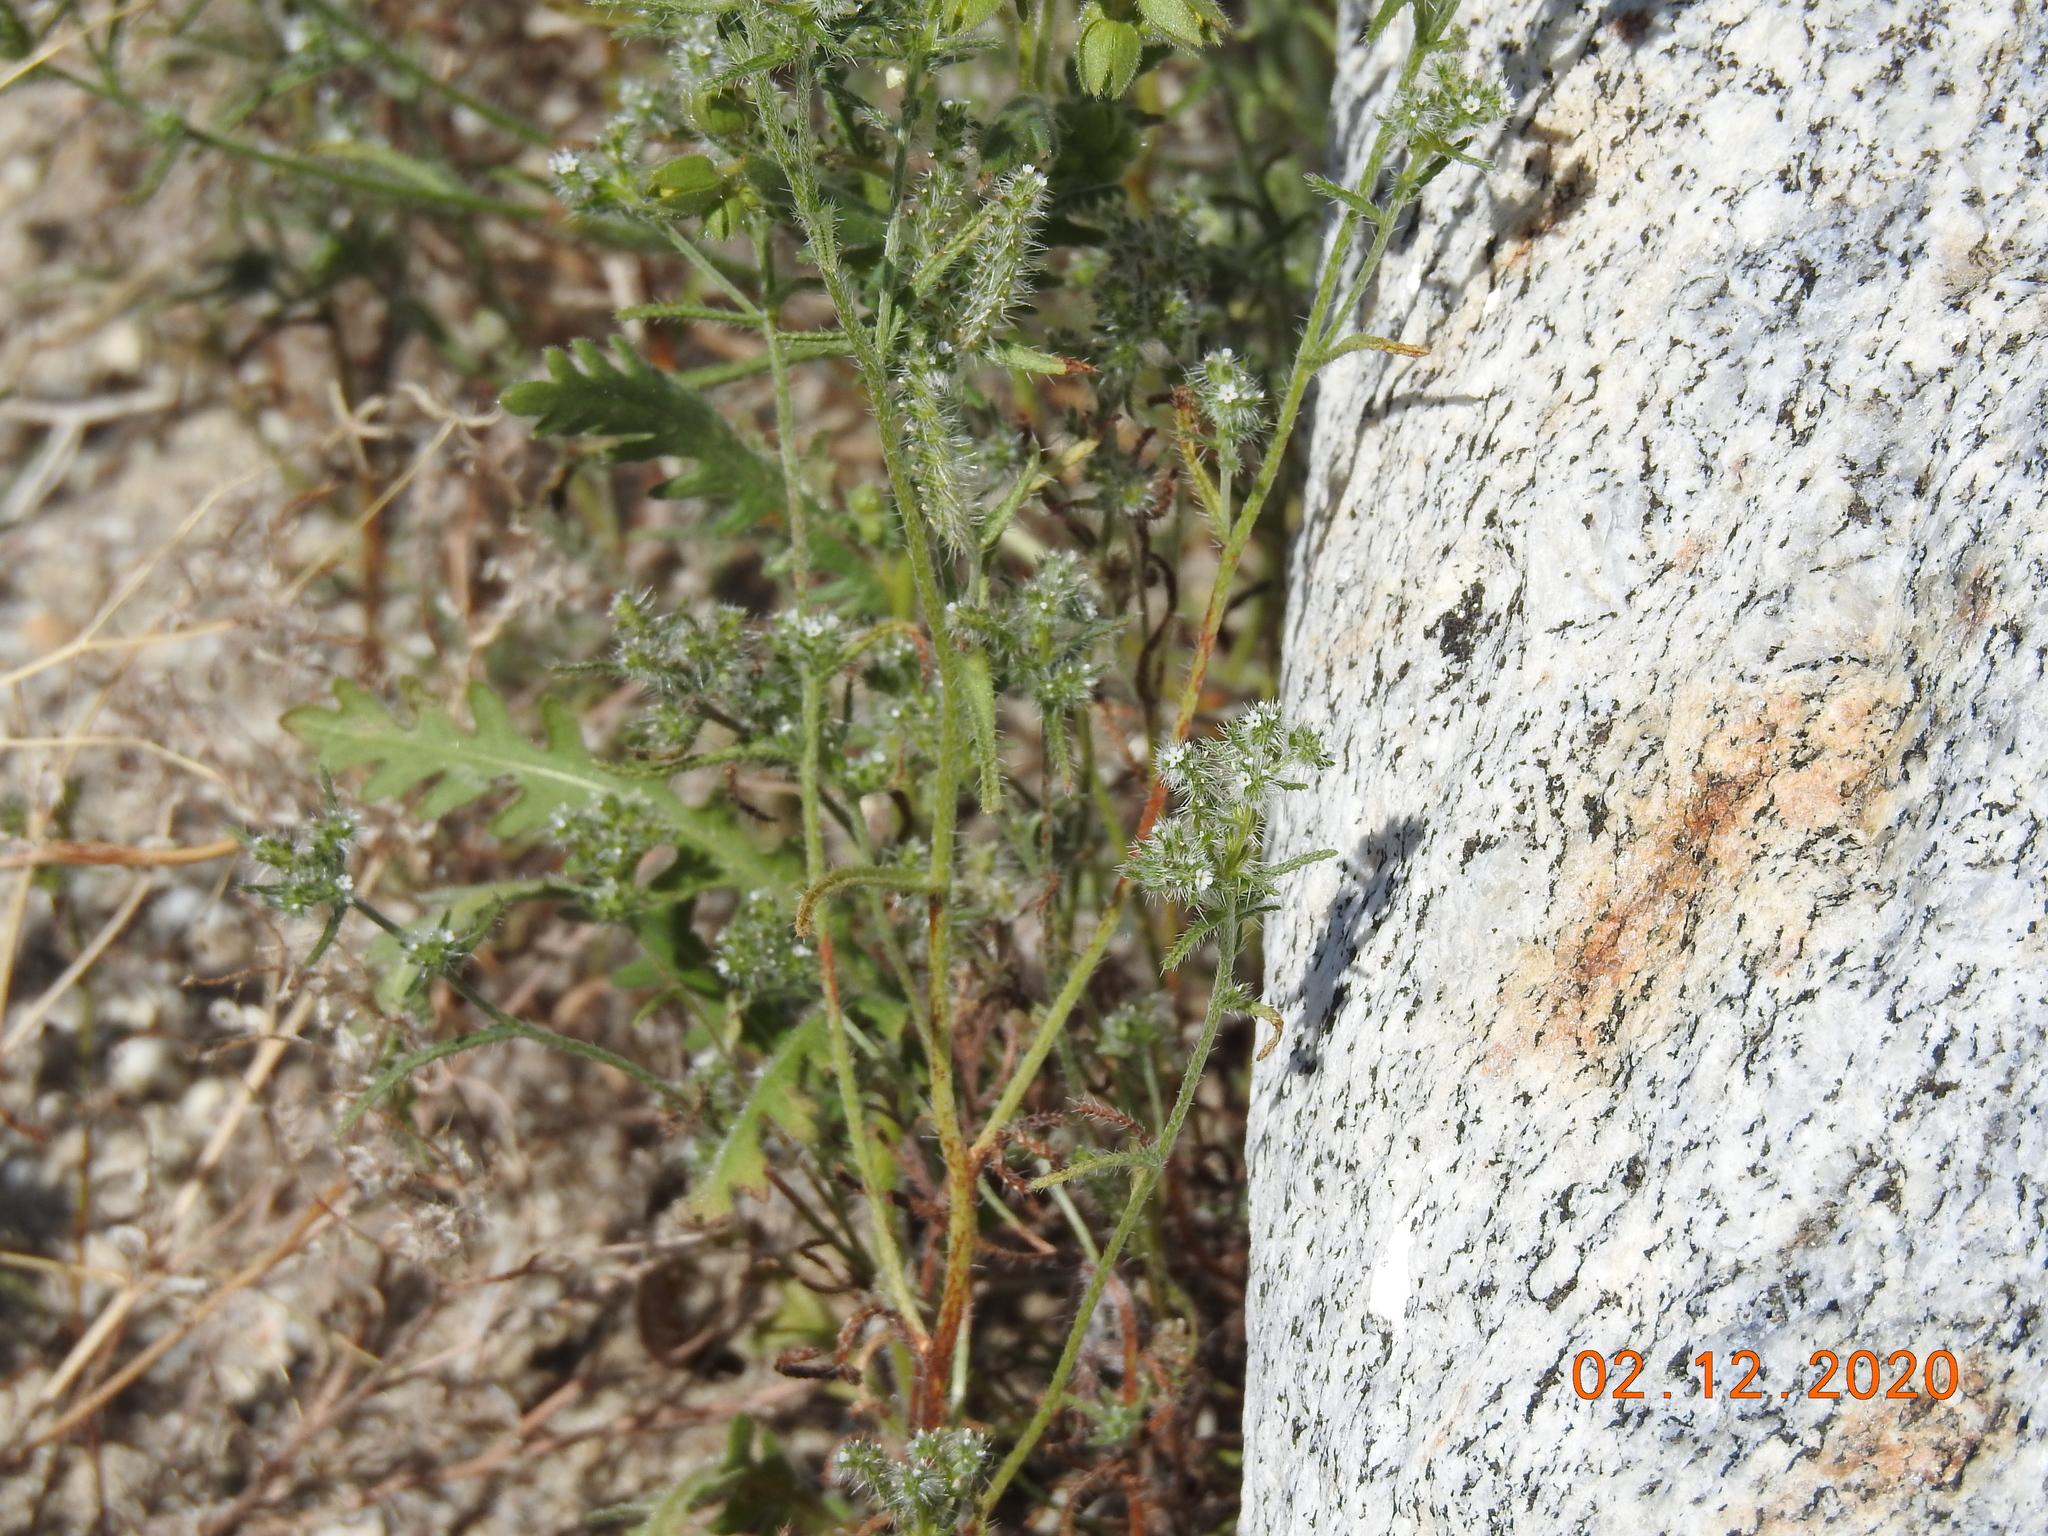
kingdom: Plantae
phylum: Tracheophyta
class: Magnoliopsida
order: Boraginales
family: Hydrophyllaceae
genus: Emmenanthe
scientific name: Emmenanthe penduliflora
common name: Whispering-bells
